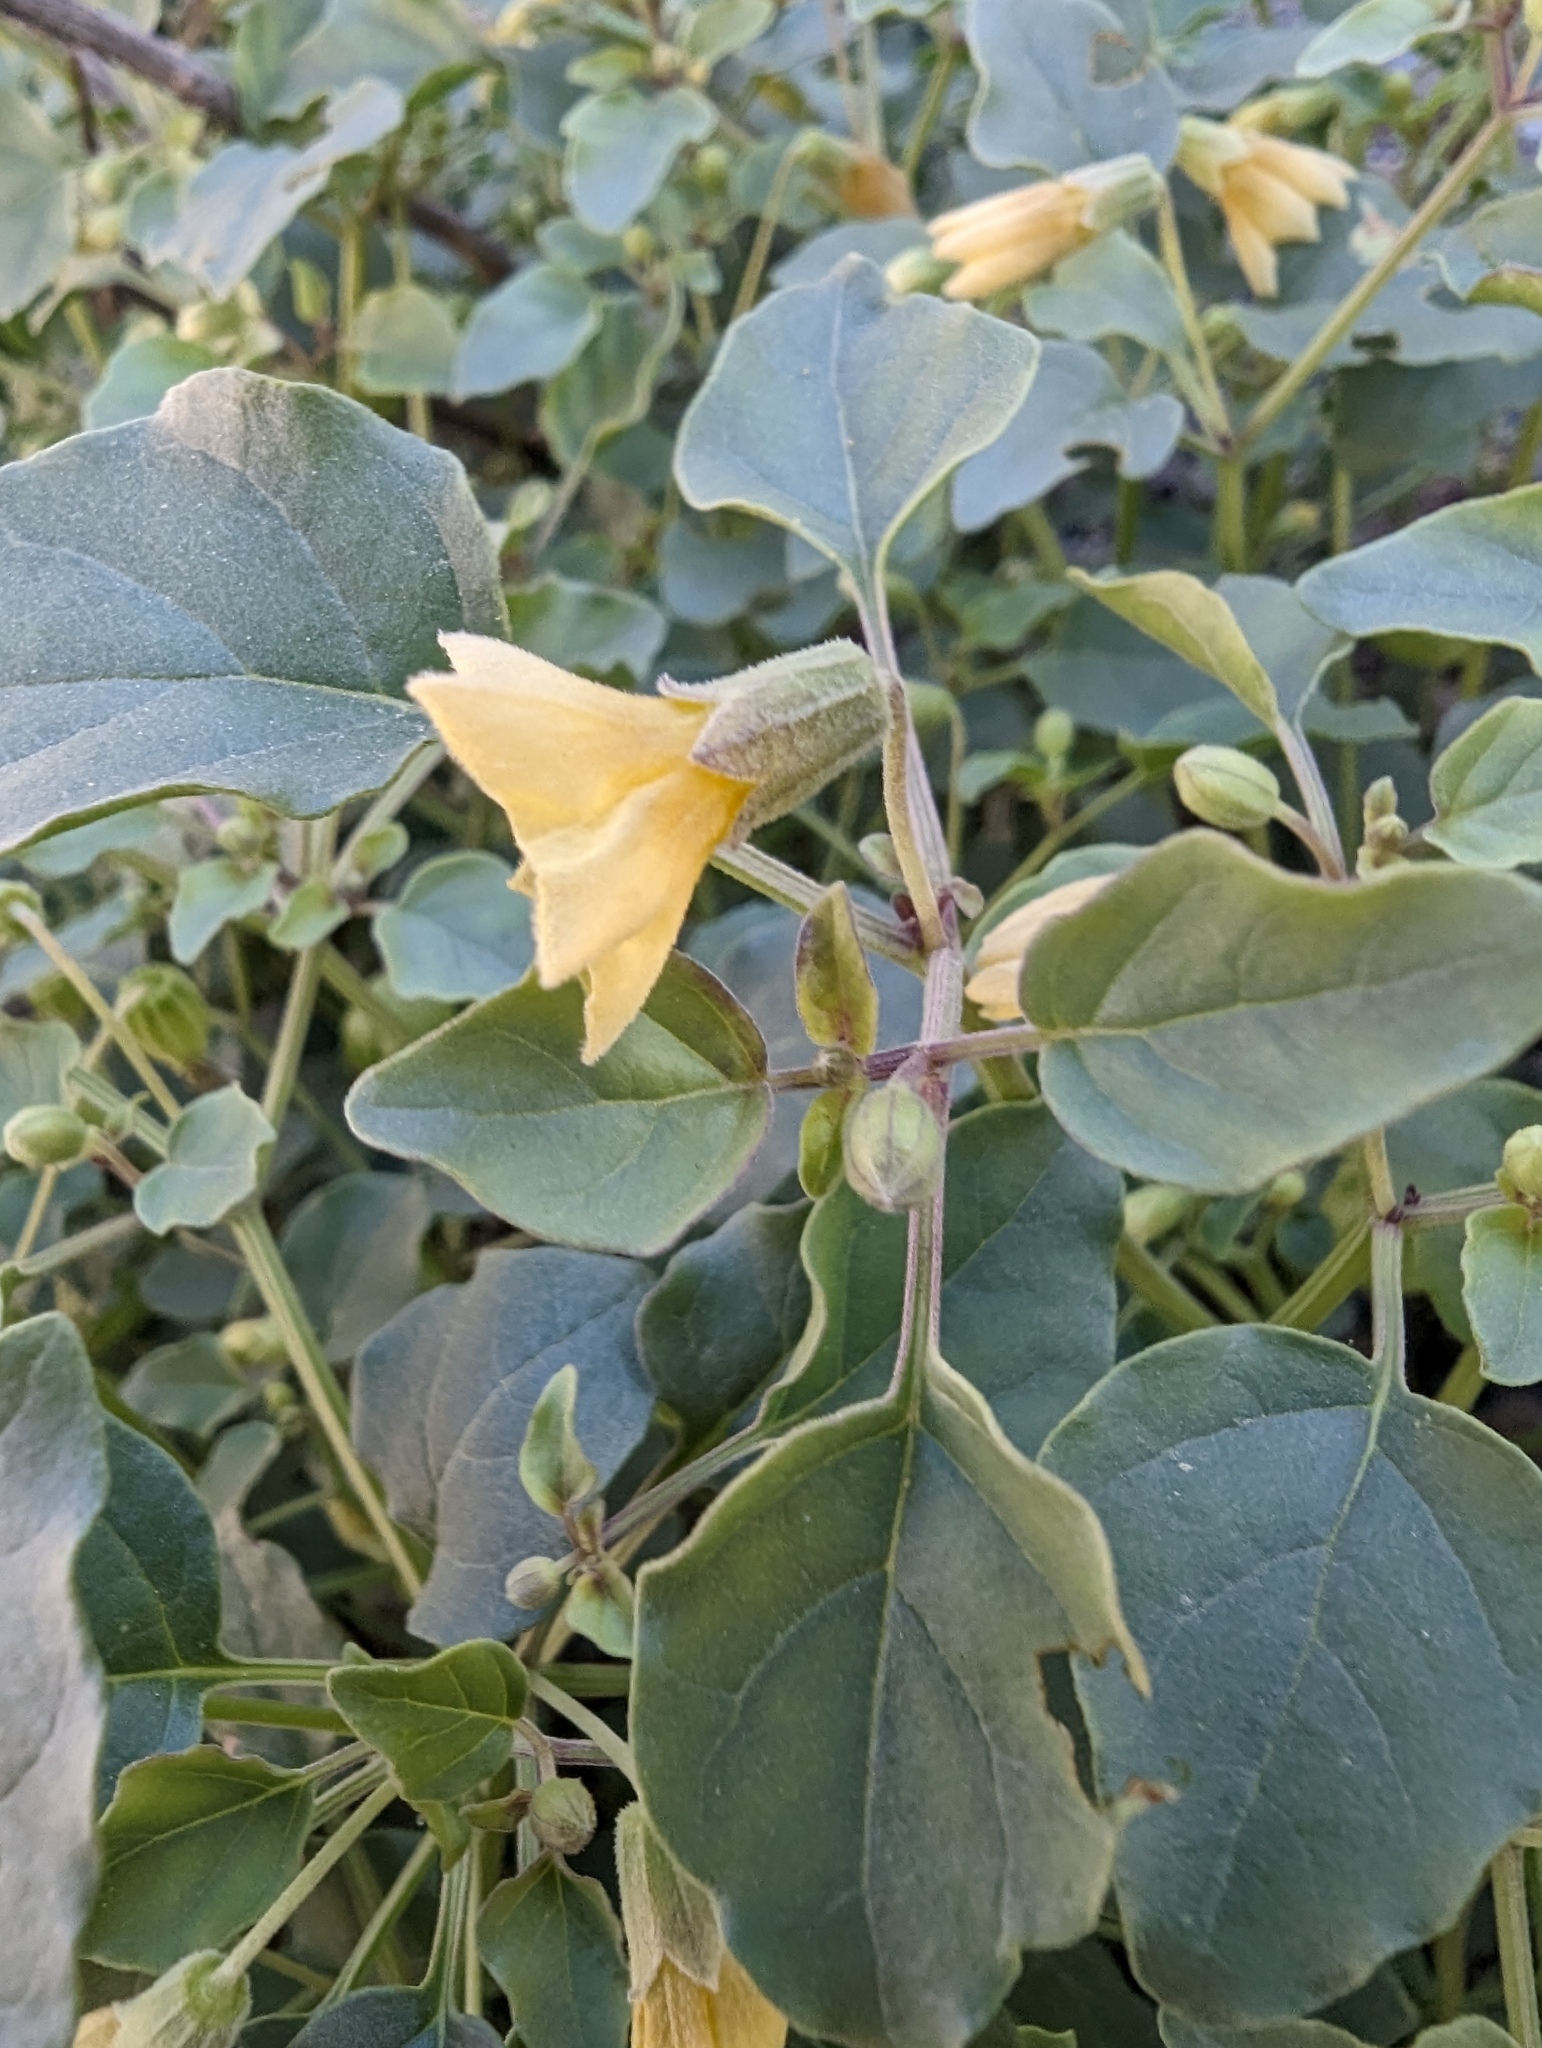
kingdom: Plantae
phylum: Tracheophyta
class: Magnoliopsida
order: Solanales
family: Solanaceae
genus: Physalis
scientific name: Physalis crassifolia
